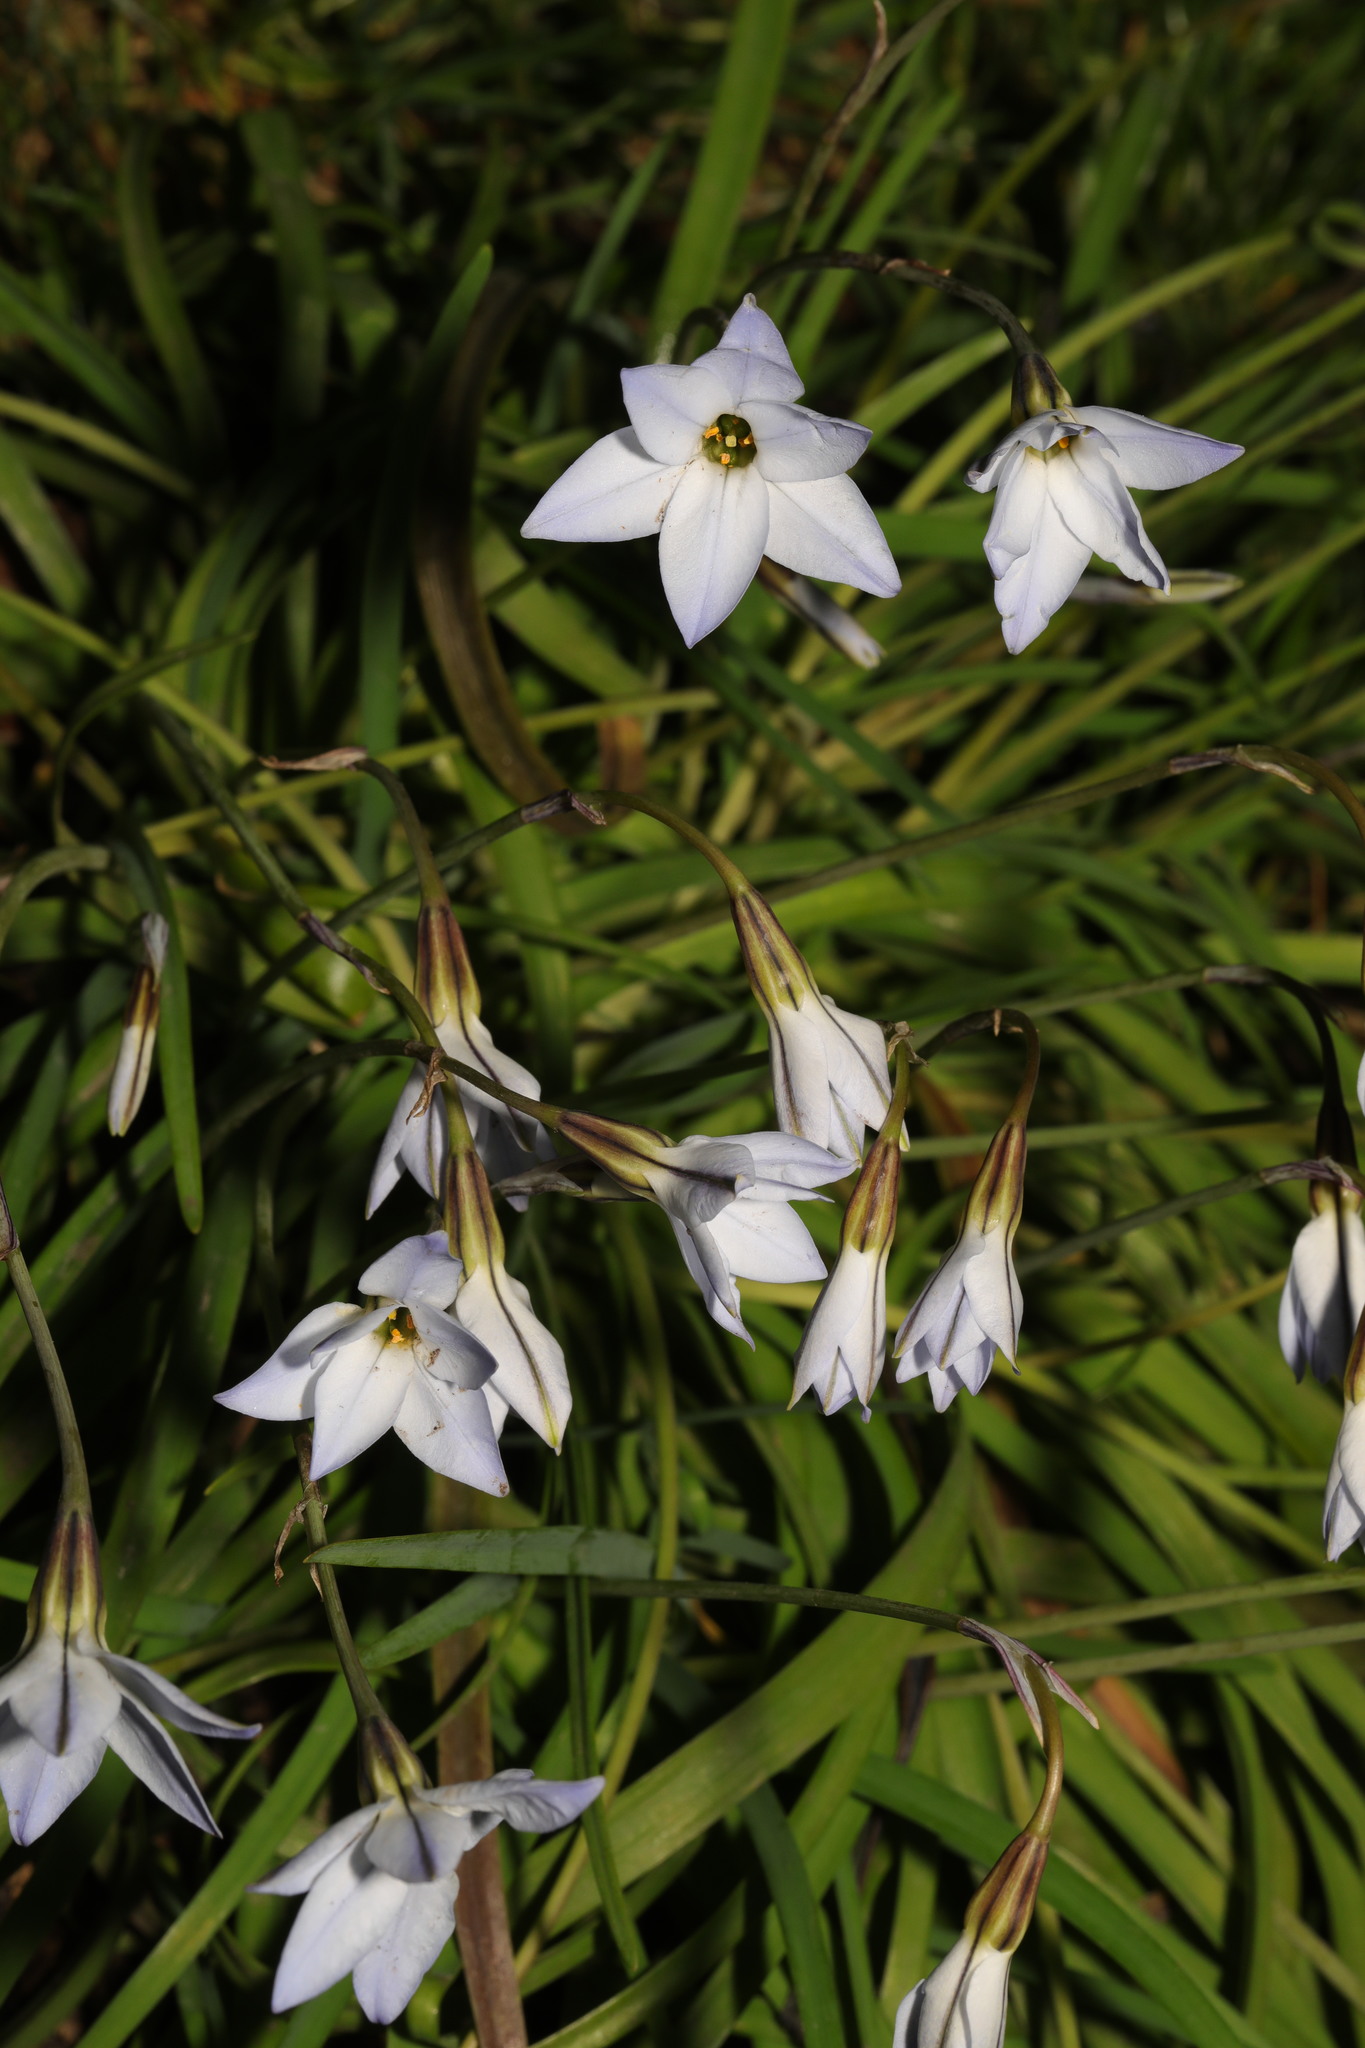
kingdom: Plantae
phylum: Tracheophyta
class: Liliopsida
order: Asparagales
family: Amaryllidaceae
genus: Ipheion
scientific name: Ipheion uniflorum
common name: Spring starflower
